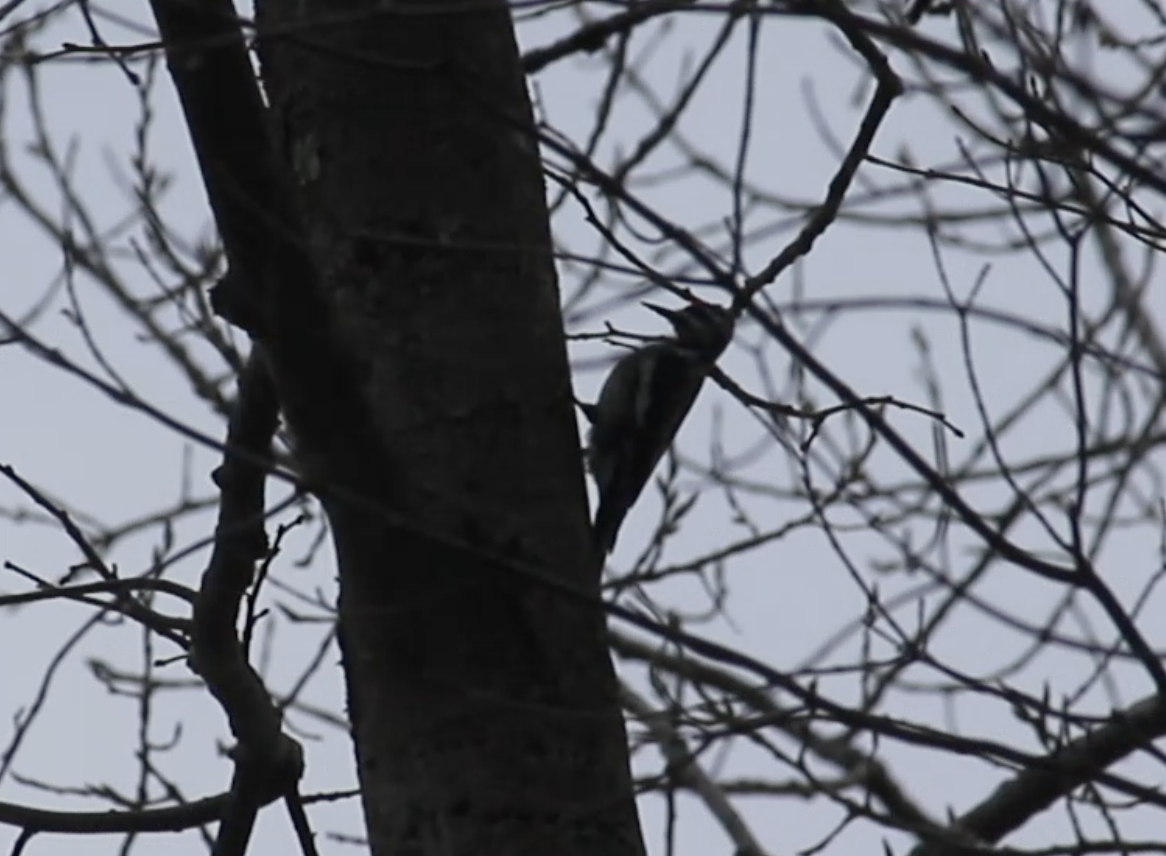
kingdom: Animalia
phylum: Chordata
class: Aves
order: Piciformes
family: Picidae
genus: Sphyrapicus
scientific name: Sphyrapicus varius
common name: Yellow-bellied sapsucker
